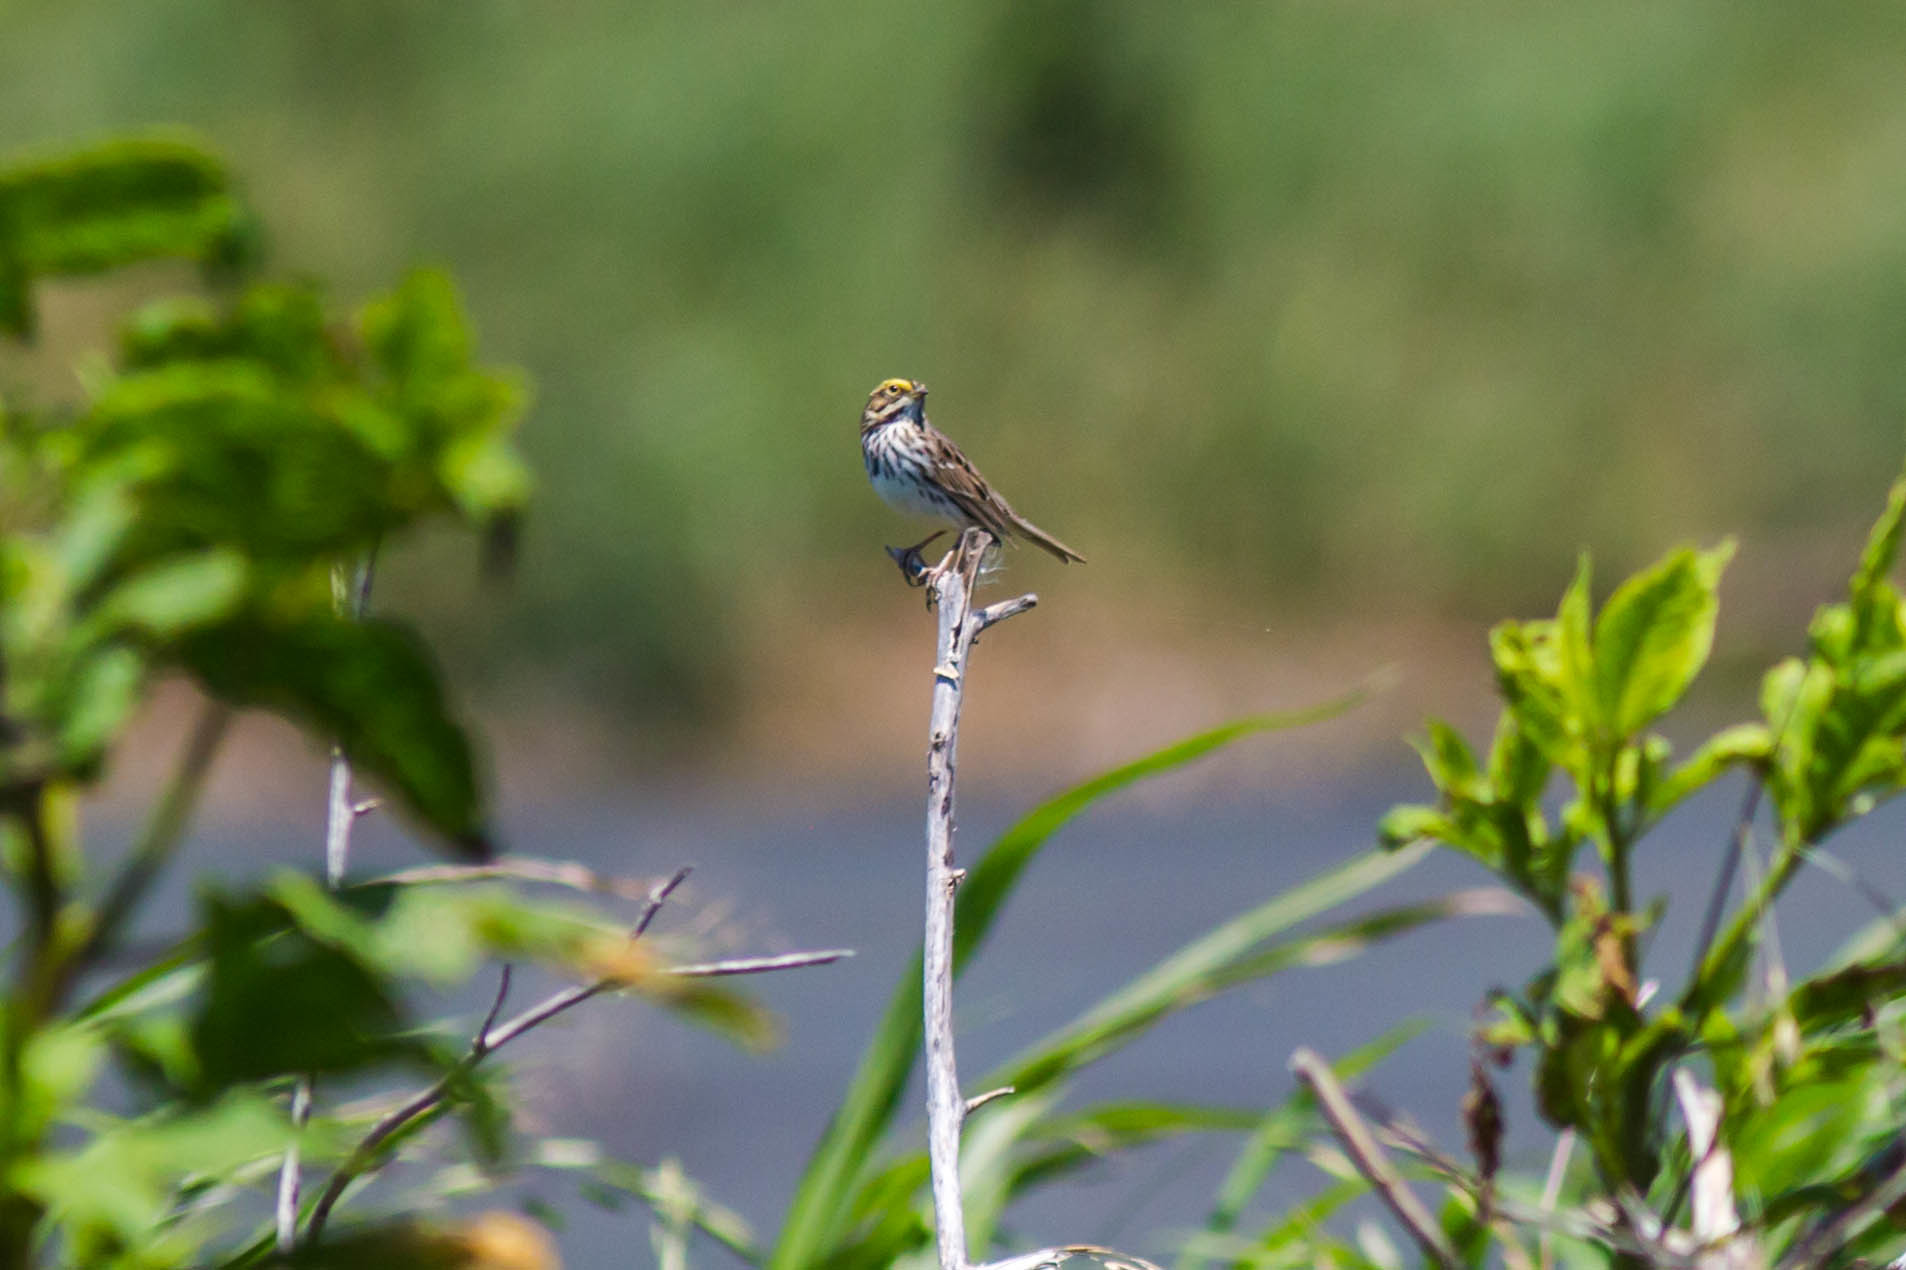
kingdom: Animalia
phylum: Chordata
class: Aves
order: Passeriformes
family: Passerellidae
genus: Passerculus
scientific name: Passerculus sandwichensis
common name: Savannah sparrow
